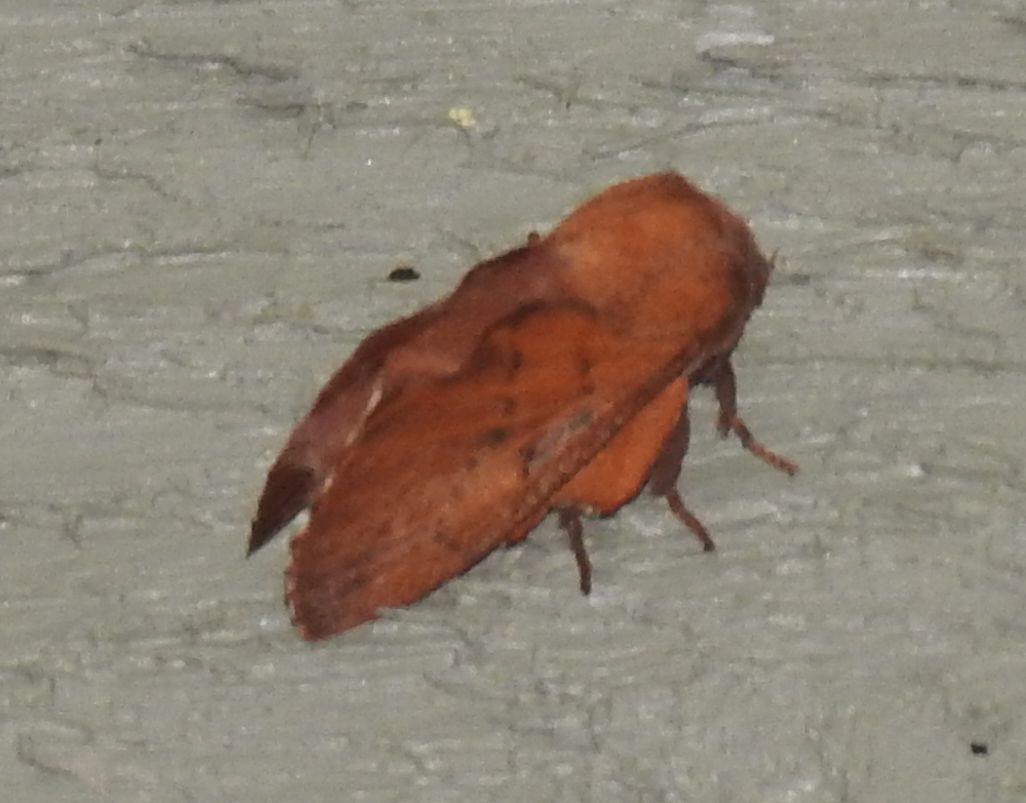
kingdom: Animalia
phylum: Arthropoda
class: Insecta
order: Lepidoptera
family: Lasiocampidae
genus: Phyllodesma
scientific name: Phyllodesma americana
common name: American lappet moth
